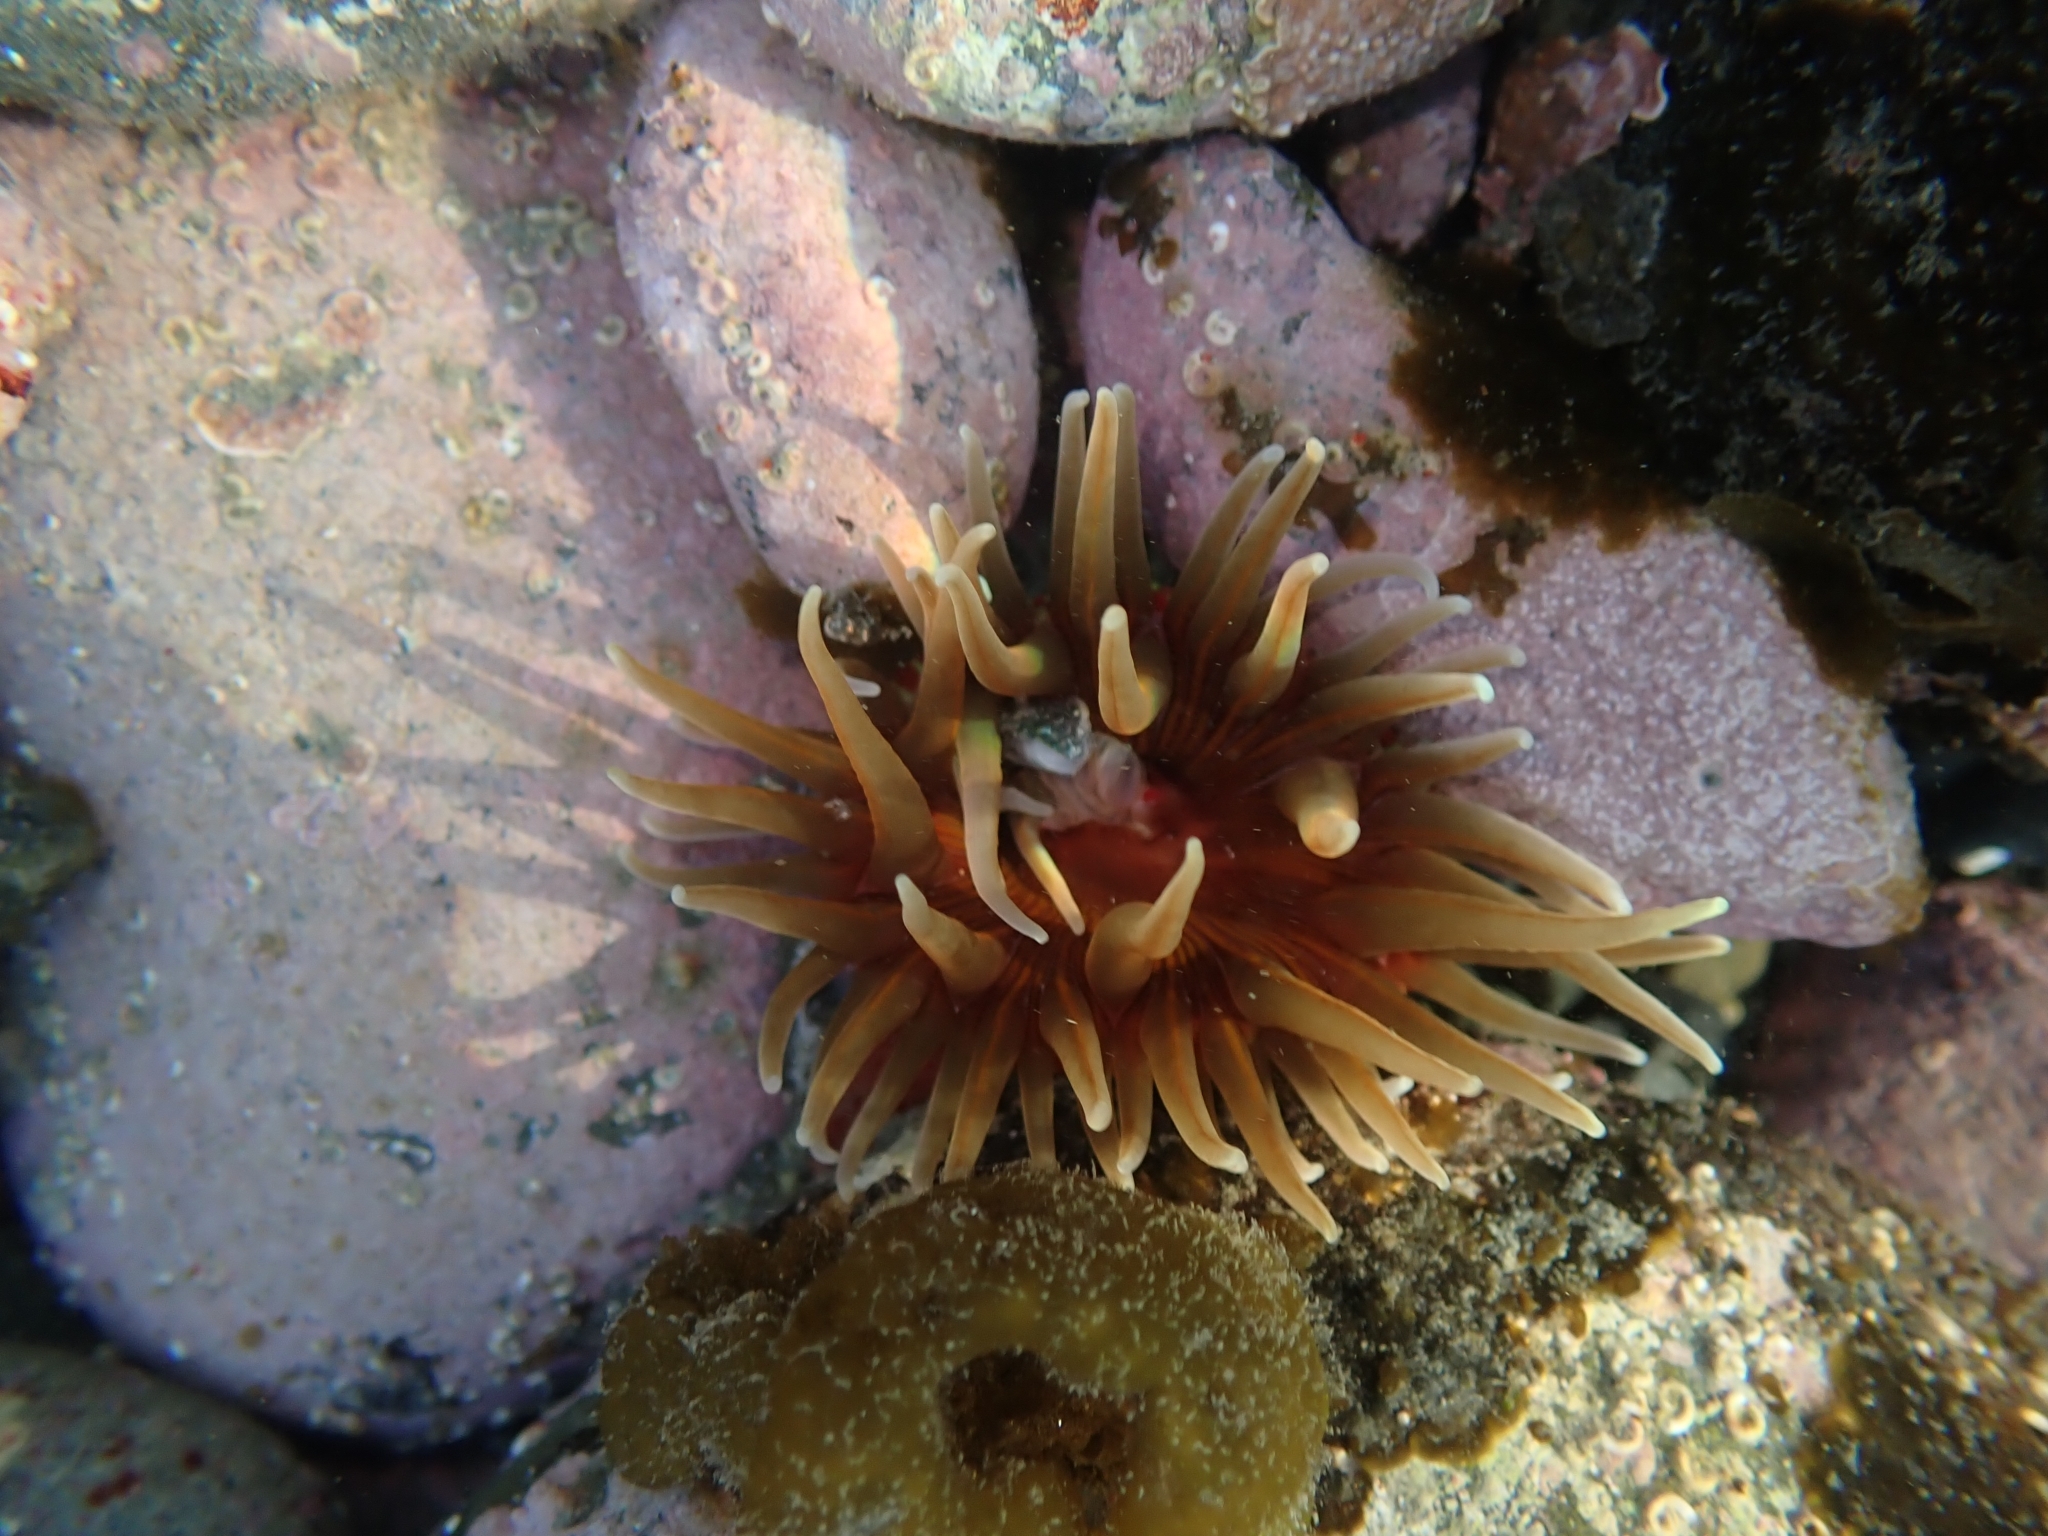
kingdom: Animalia
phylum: Cnidaria
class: Anthozoa
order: Actiniaria
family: Actiniidae
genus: Epiactis
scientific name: Epiactis thompsoni
